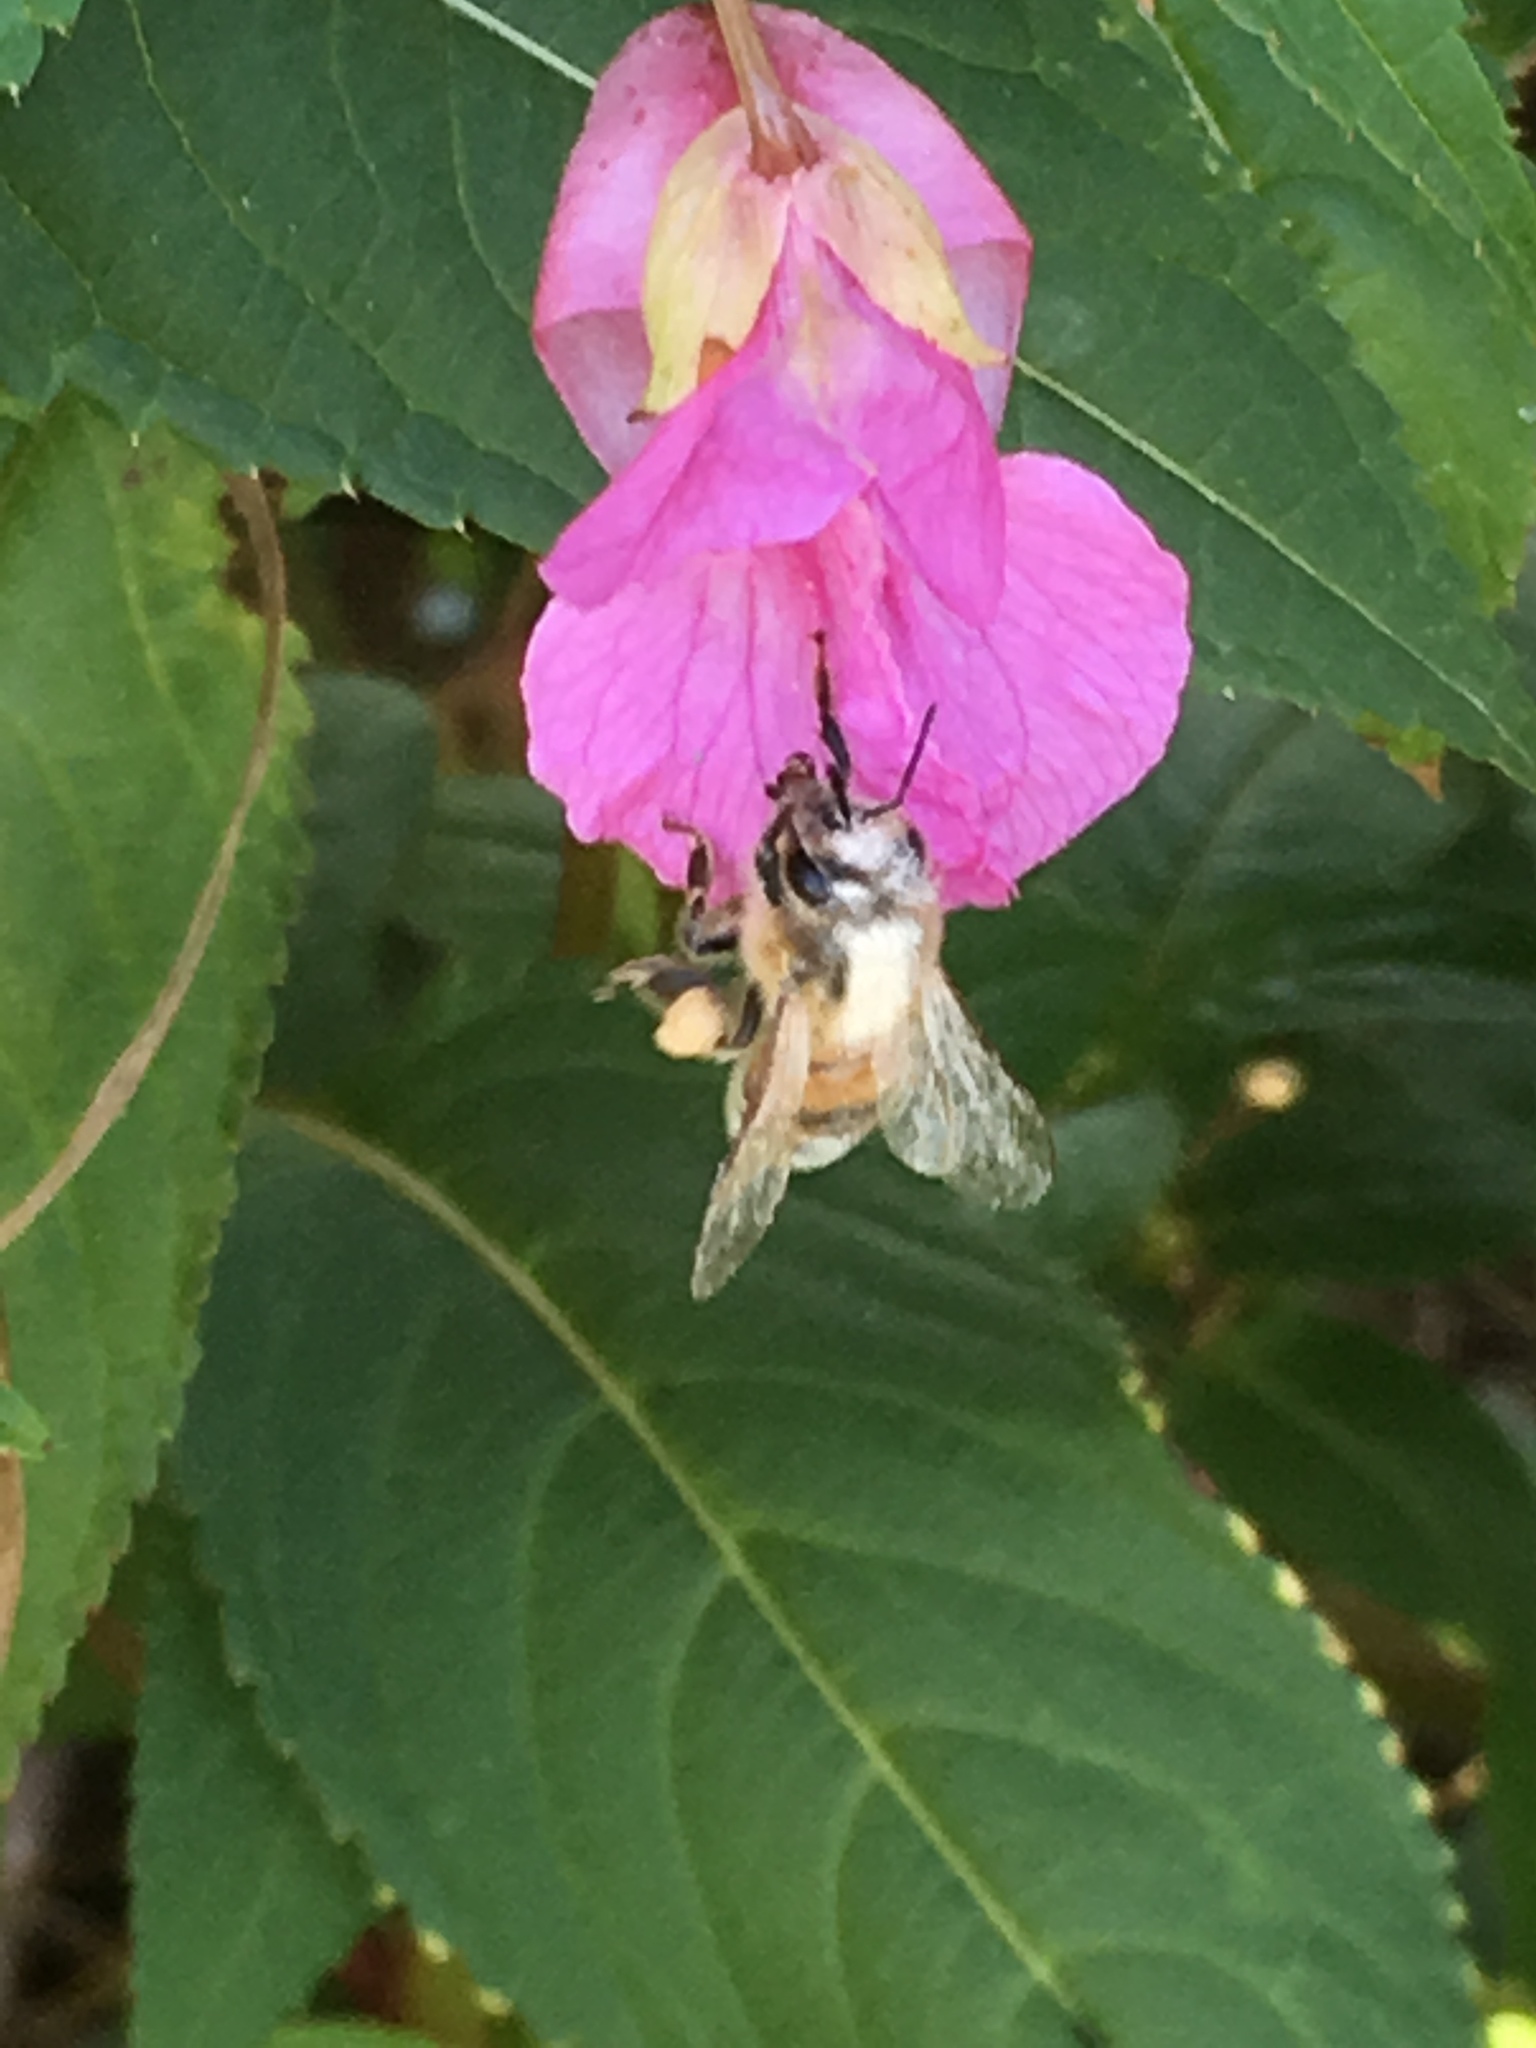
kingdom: Animalia
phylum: Arthropoda
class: Insecta
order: Hymenoptera
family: Apidae
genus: Apis
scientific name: Apis mellifera
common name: Honey bee
